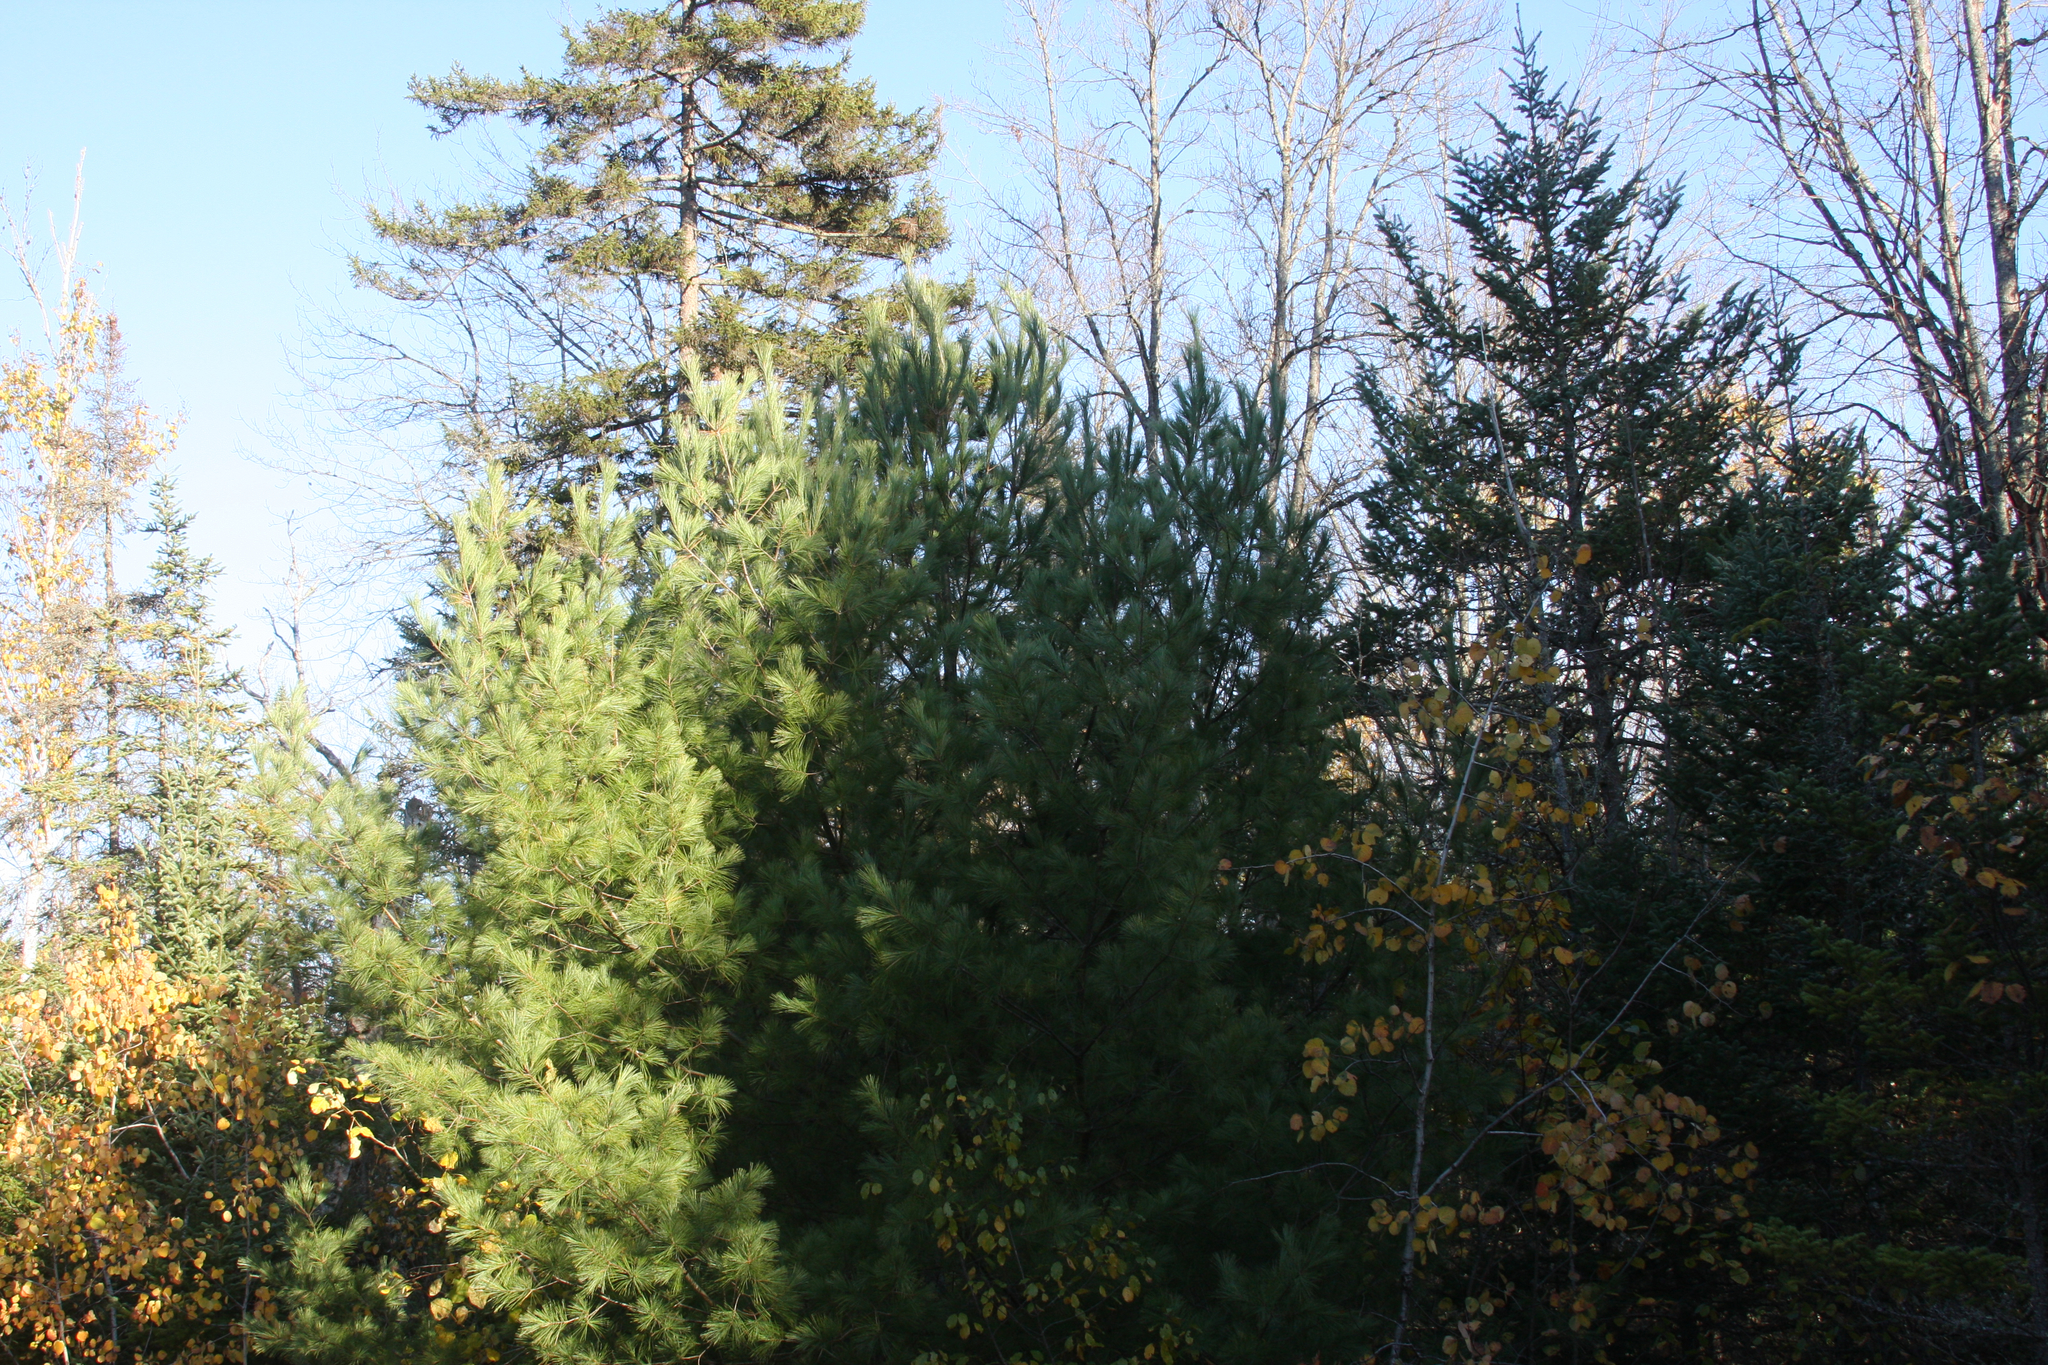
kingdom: Plantae
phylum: Tracheophyta
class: Pinopsida
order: Pinales
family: Pinaceae
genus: Pinus
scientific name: Pinus strobus
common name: Weymouth pine
